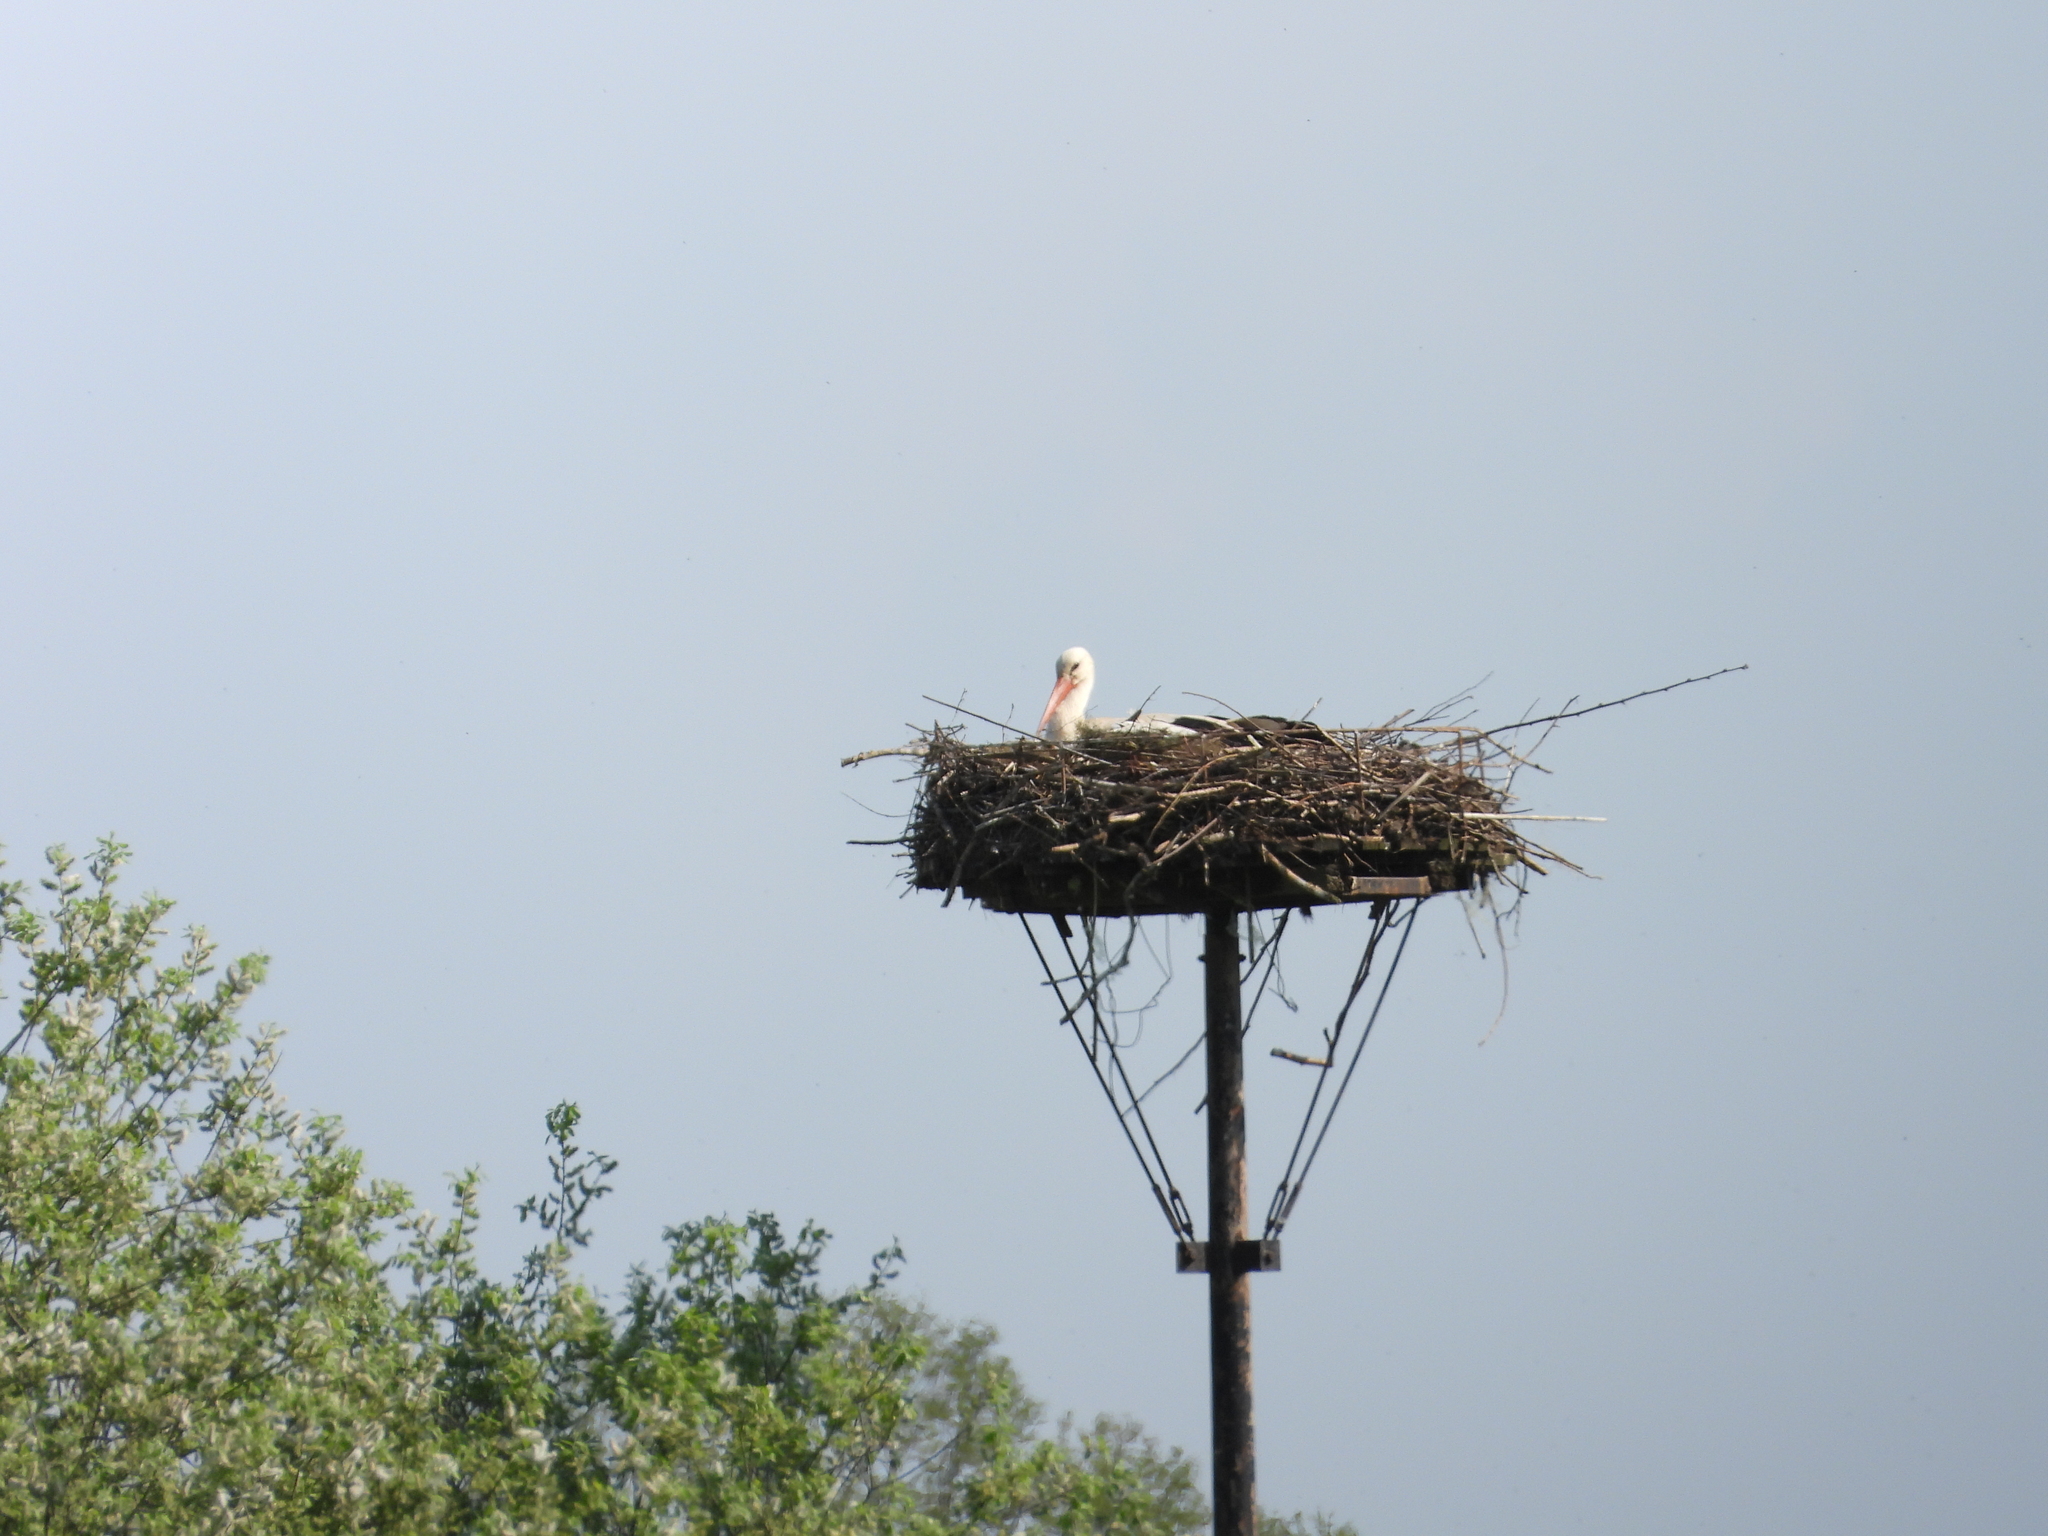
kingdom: Animalia
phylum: Chordata
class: Aves
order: Ciconiiformes
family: Ciconiidae
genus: Ciconia
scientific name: Ciconia ciconia
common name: White stork
